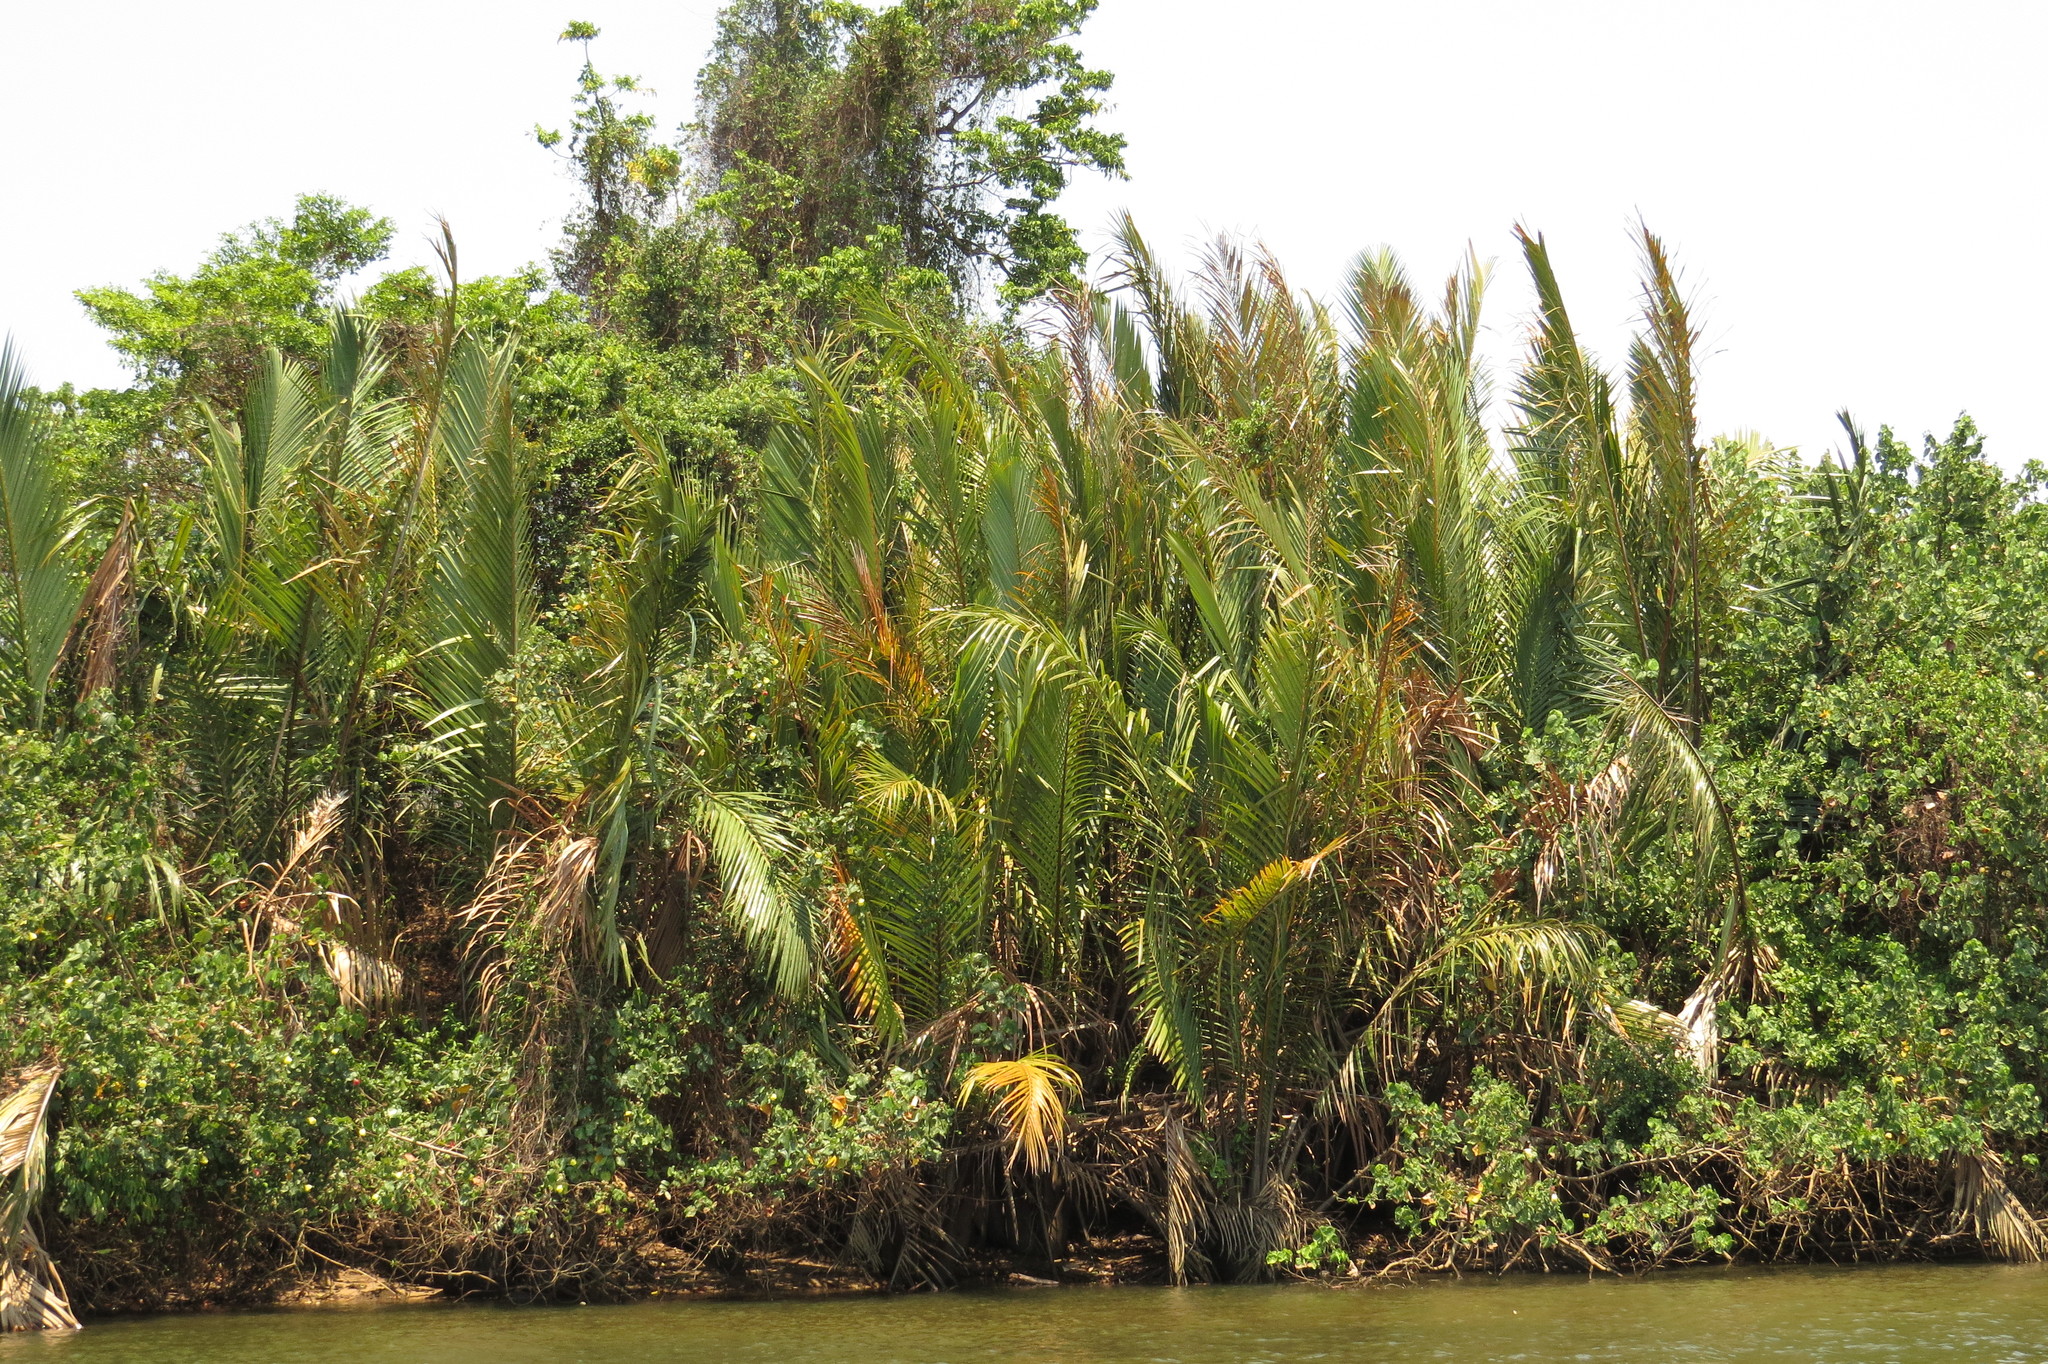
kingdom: Plantae
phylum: Tracheophyta
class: Liliopsida
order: Arecales
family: Arecaceae
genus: Nypa
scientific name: Nypa fruticans
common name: Mangrove palm
